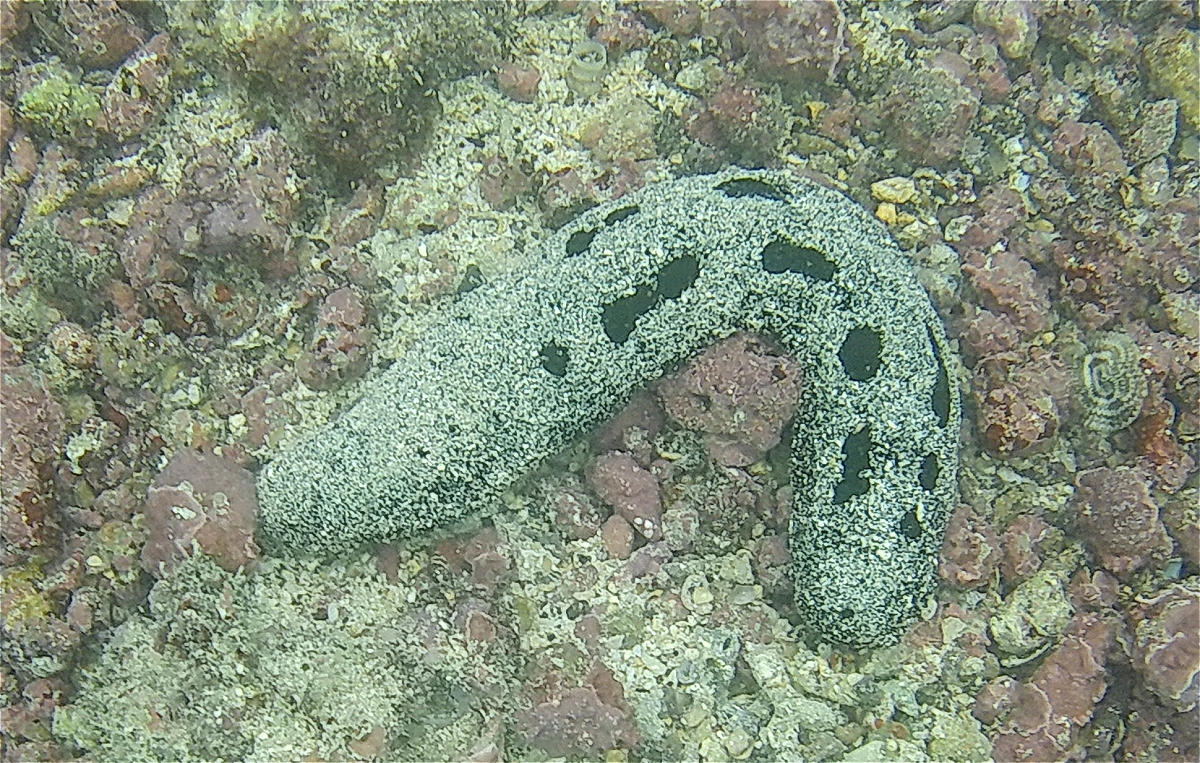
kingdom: Animalia
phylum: Echinodermata
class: Holothuroidea
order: Holothuriida
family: Holothuriidae
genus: Holothuria
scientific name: Holothuria atra
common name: Lollyfish
